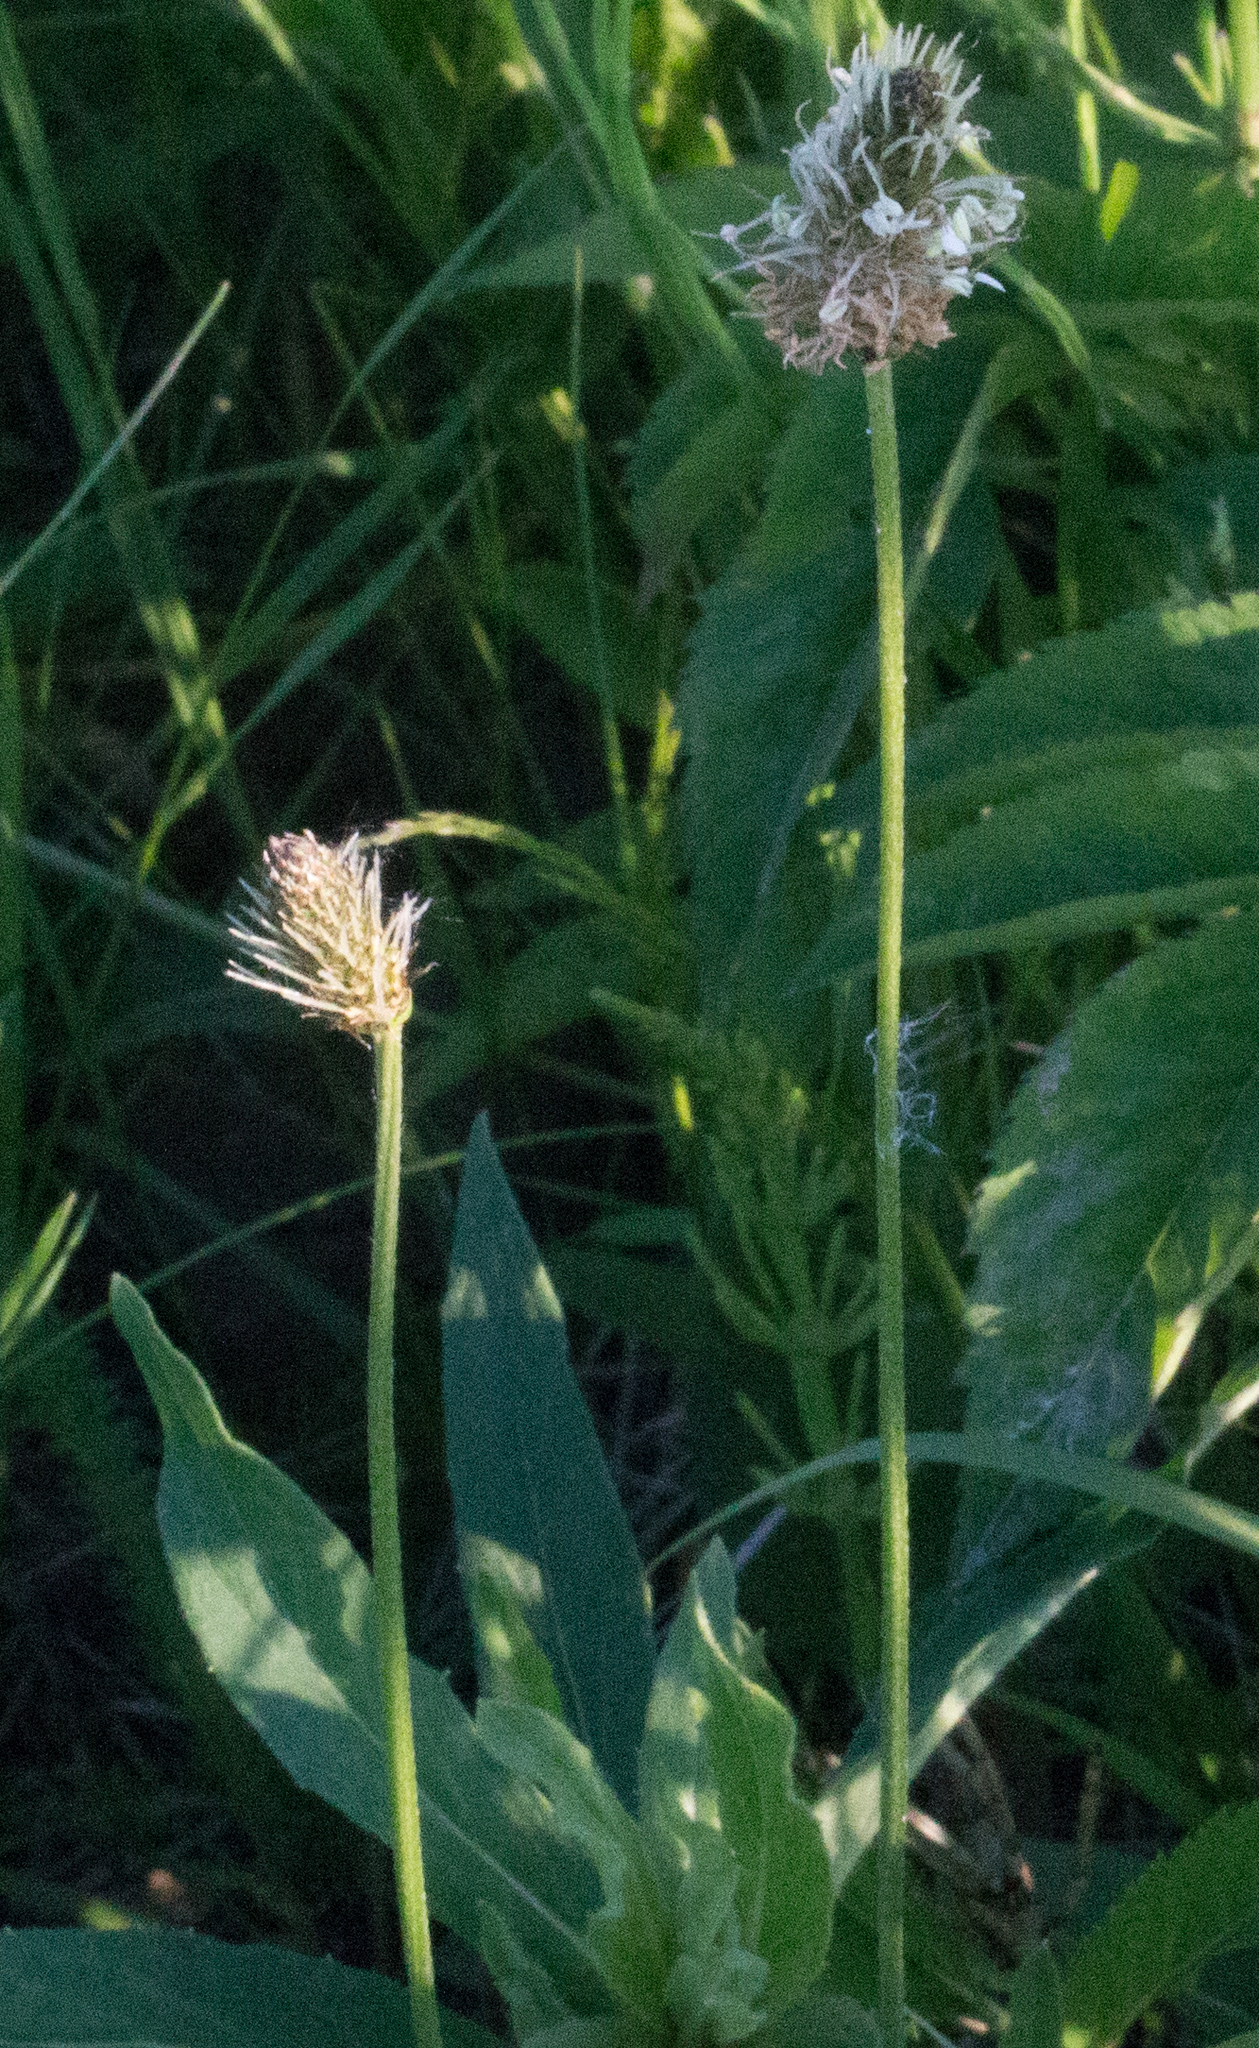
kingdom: Plantae
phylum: Tracheophyta
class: Magnoliopsida
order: Lamiales
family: Plantaginaceae
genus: Plantago
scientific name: Plantago lanceolata
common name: Ribwort plantain
